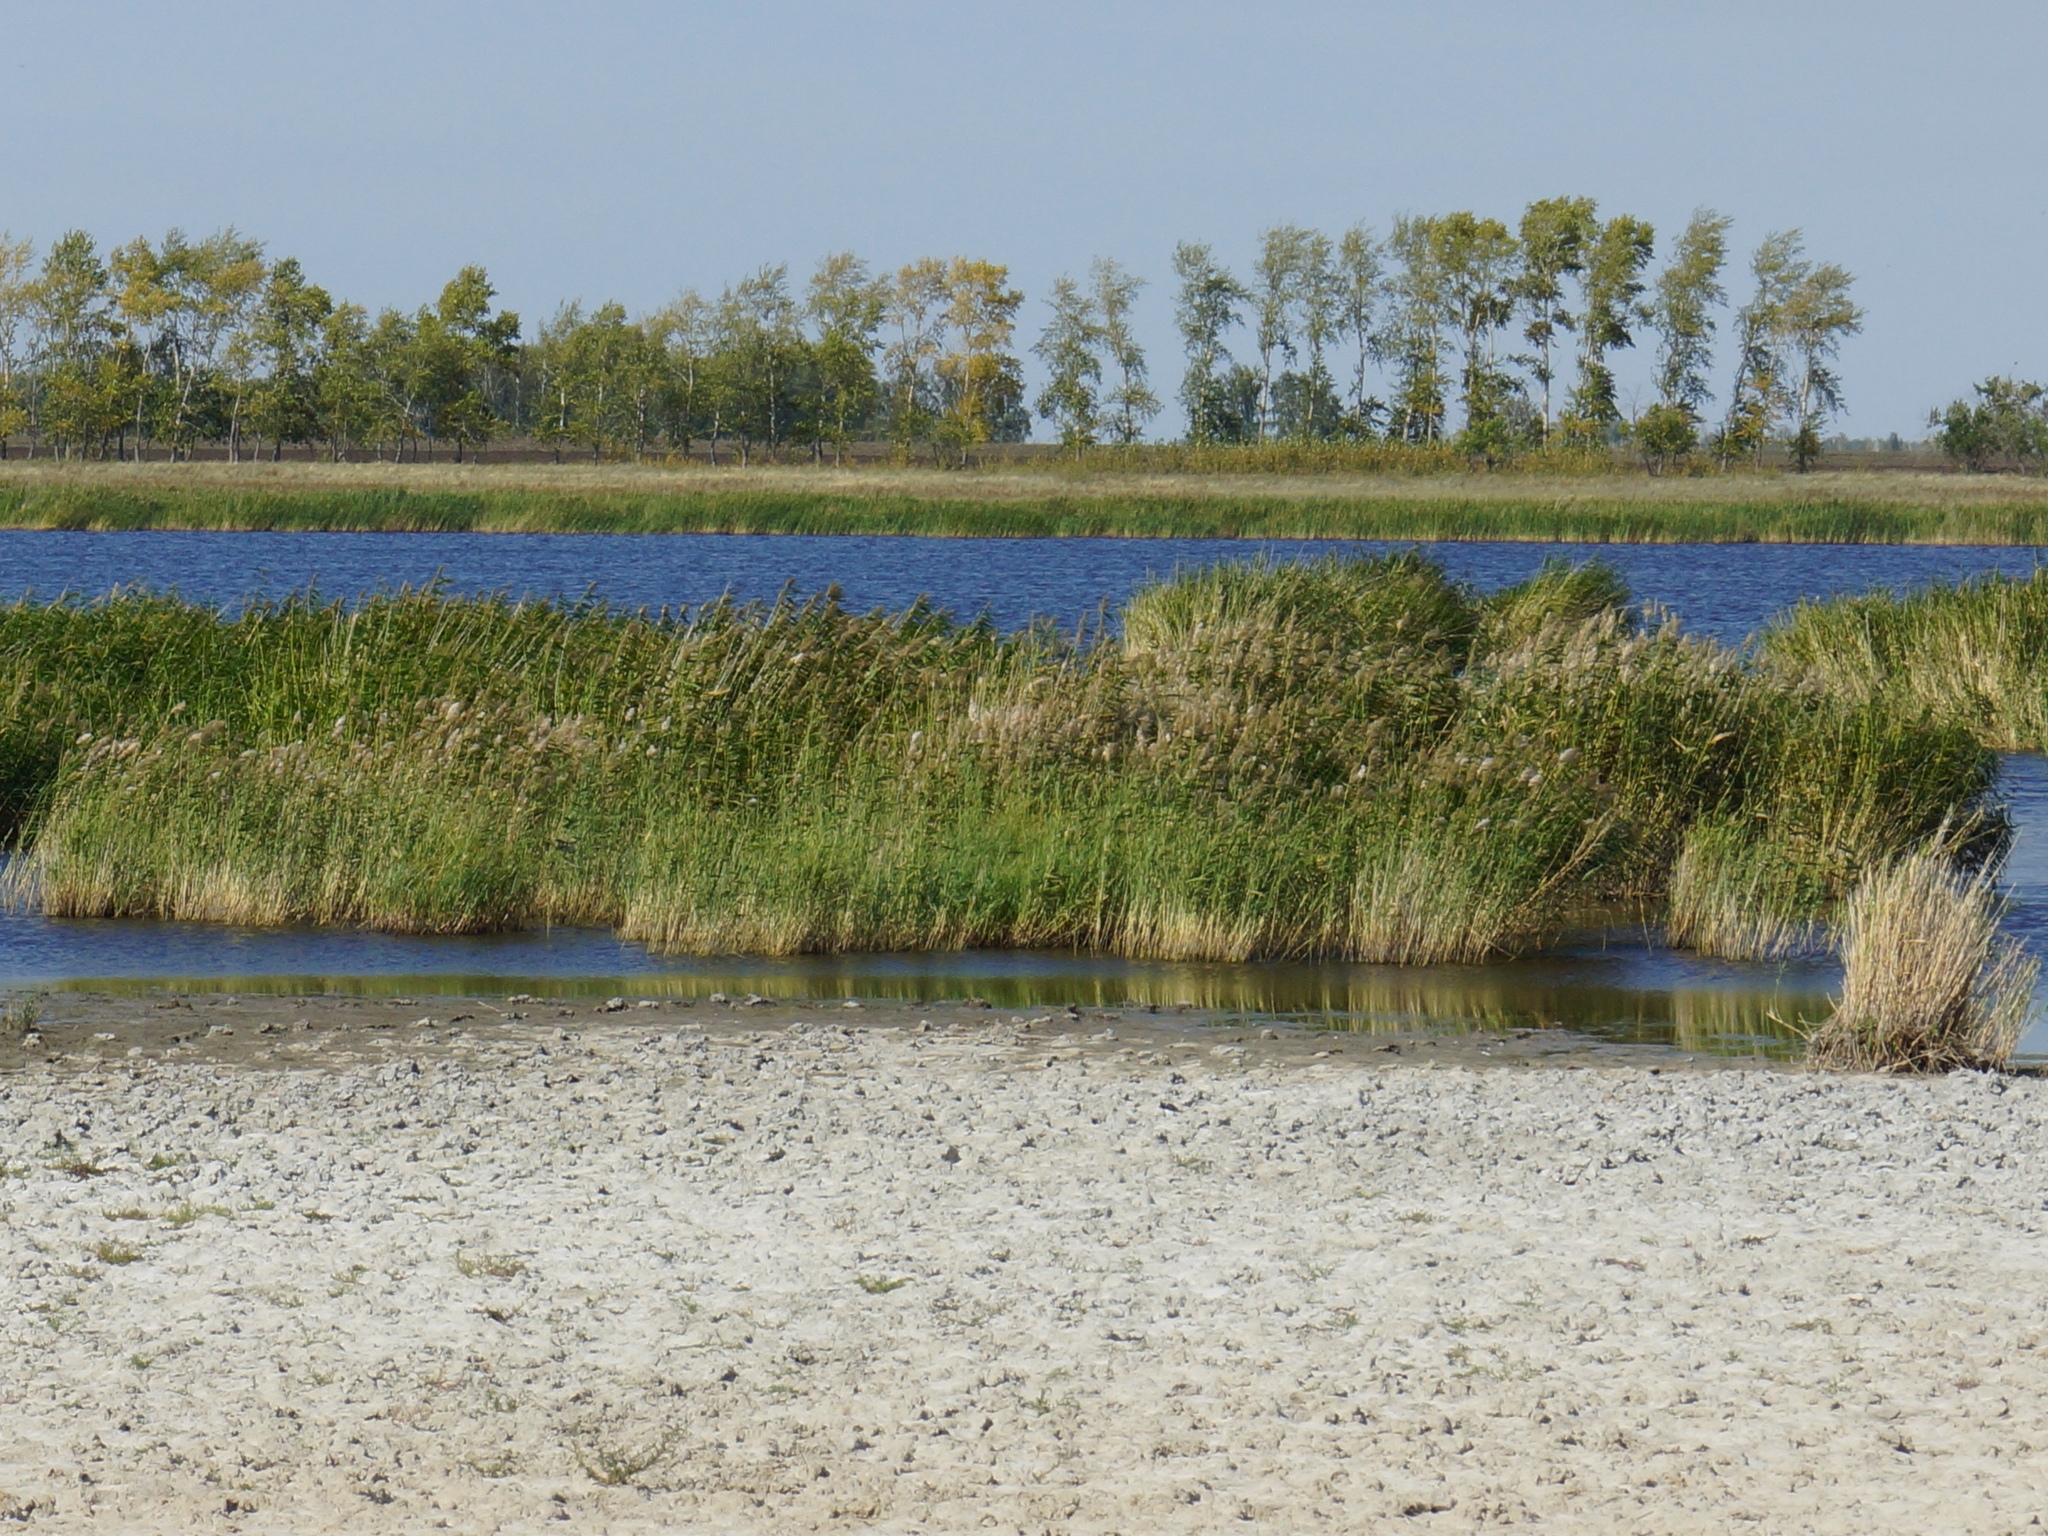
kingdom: Plantae
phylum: Tracheophyta
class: Liliopsida
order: Poales
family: Poaceae
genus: Phragmites
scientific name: Phragmites australis
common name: Common reed
